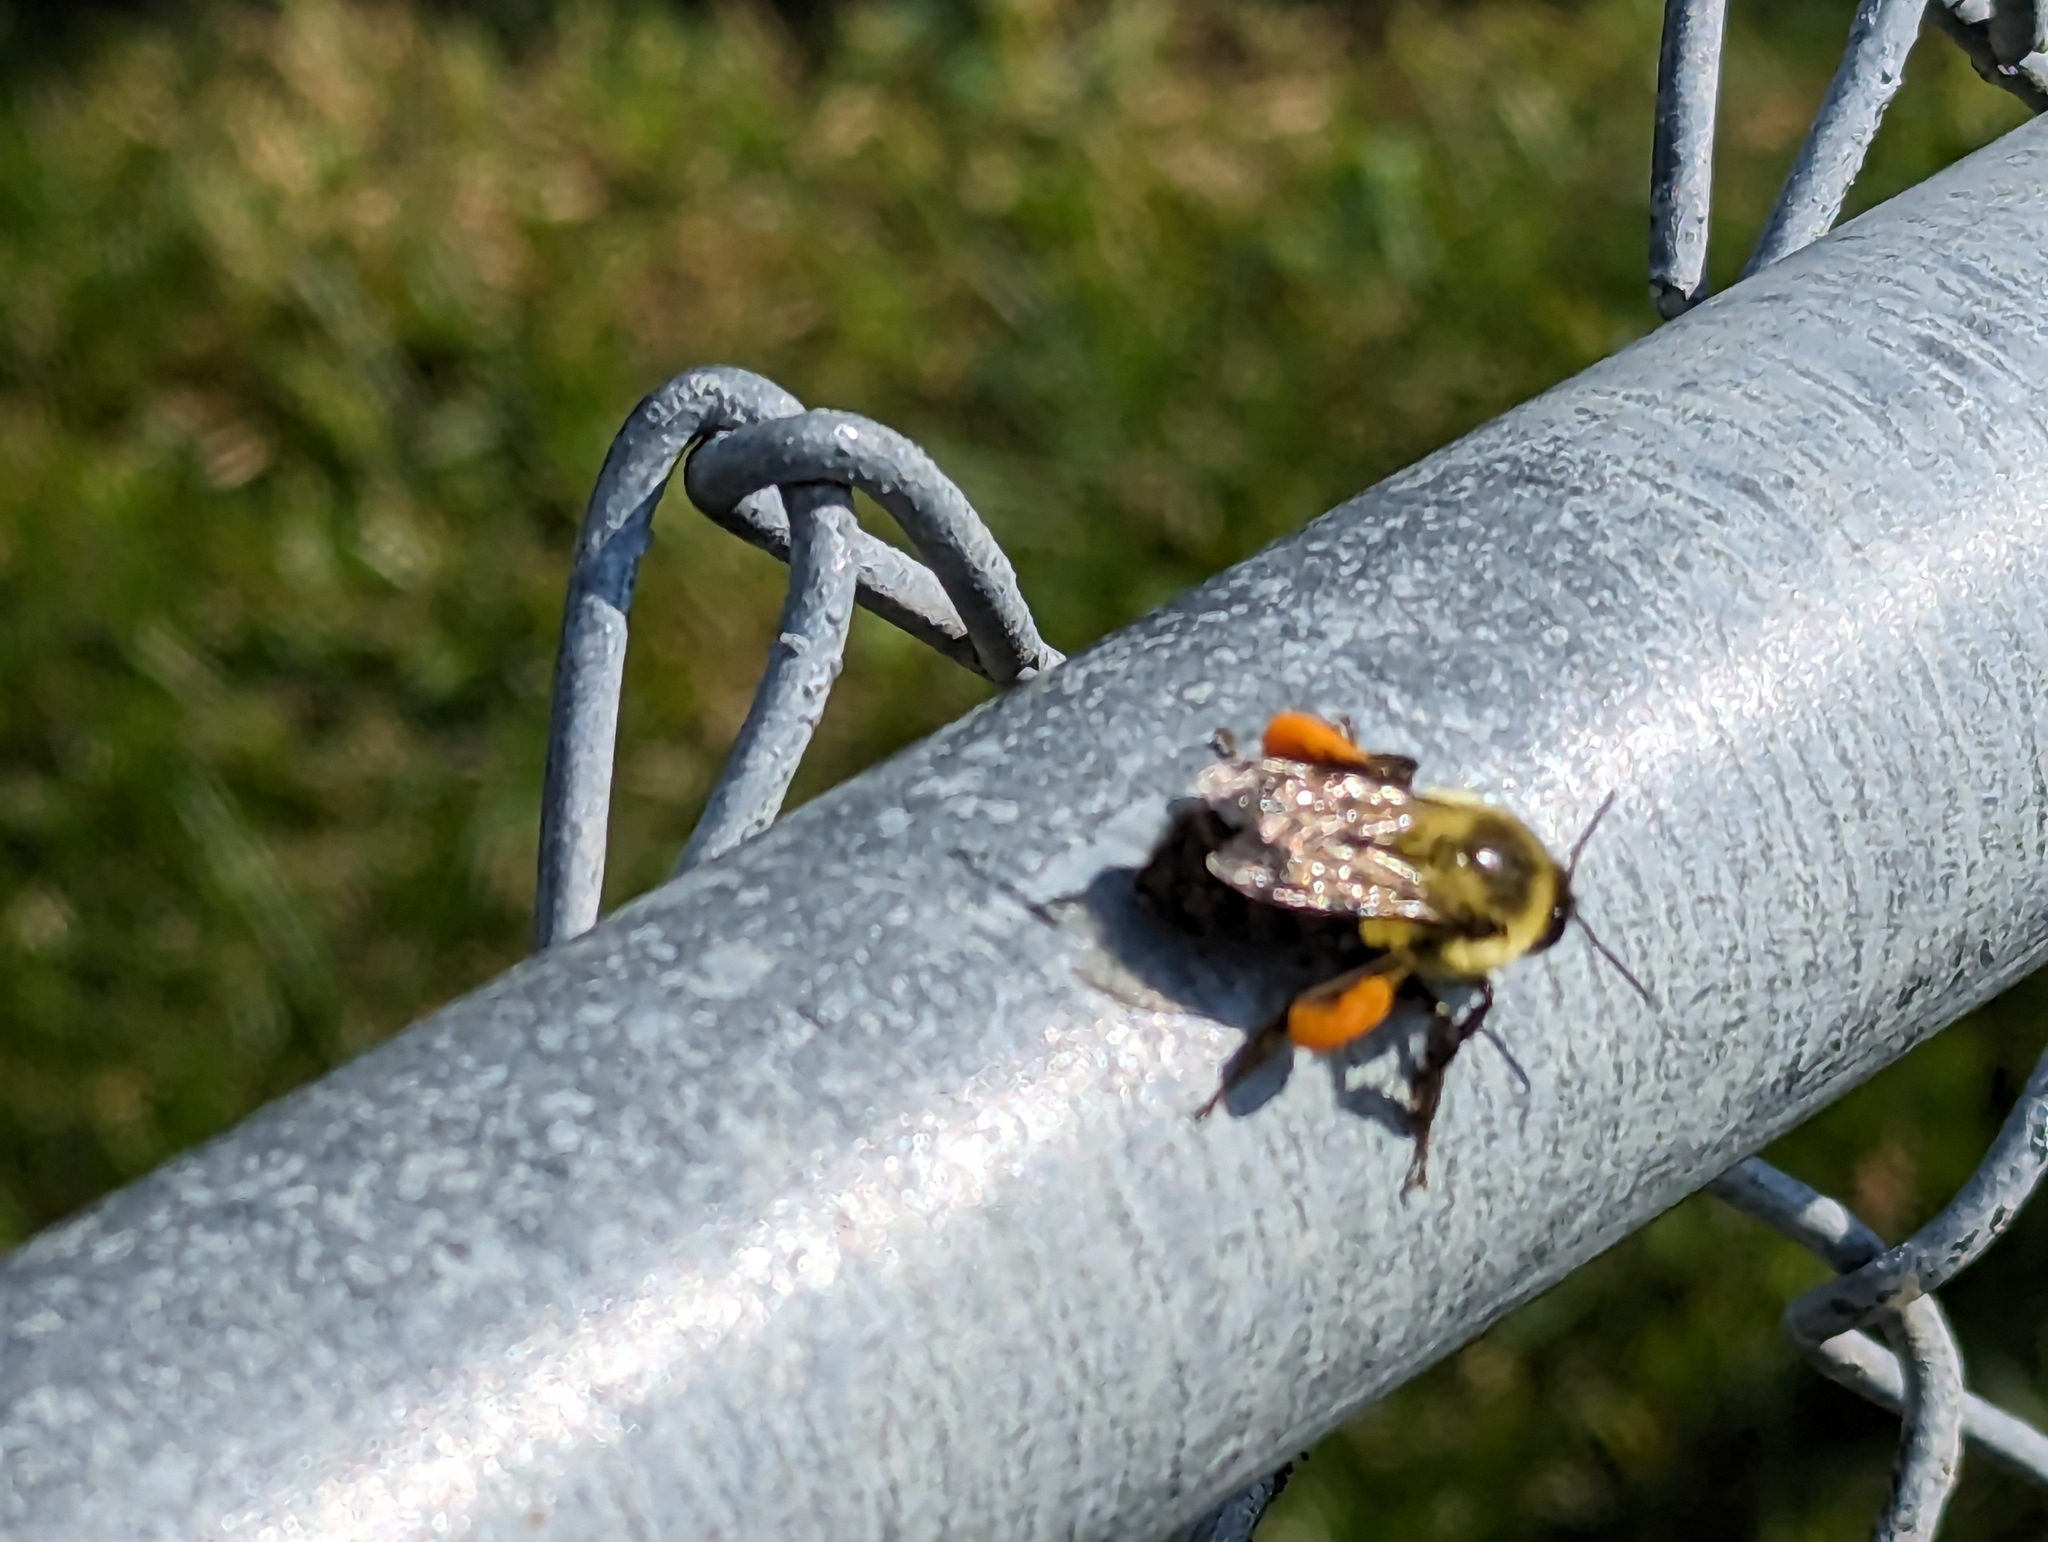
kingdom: Animalia
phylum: Arthropoda
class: Insecta
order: Hymenoptera
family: Apidae
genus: Bombus
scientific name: Bombus impatiens
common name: Common eastern bumble bee
